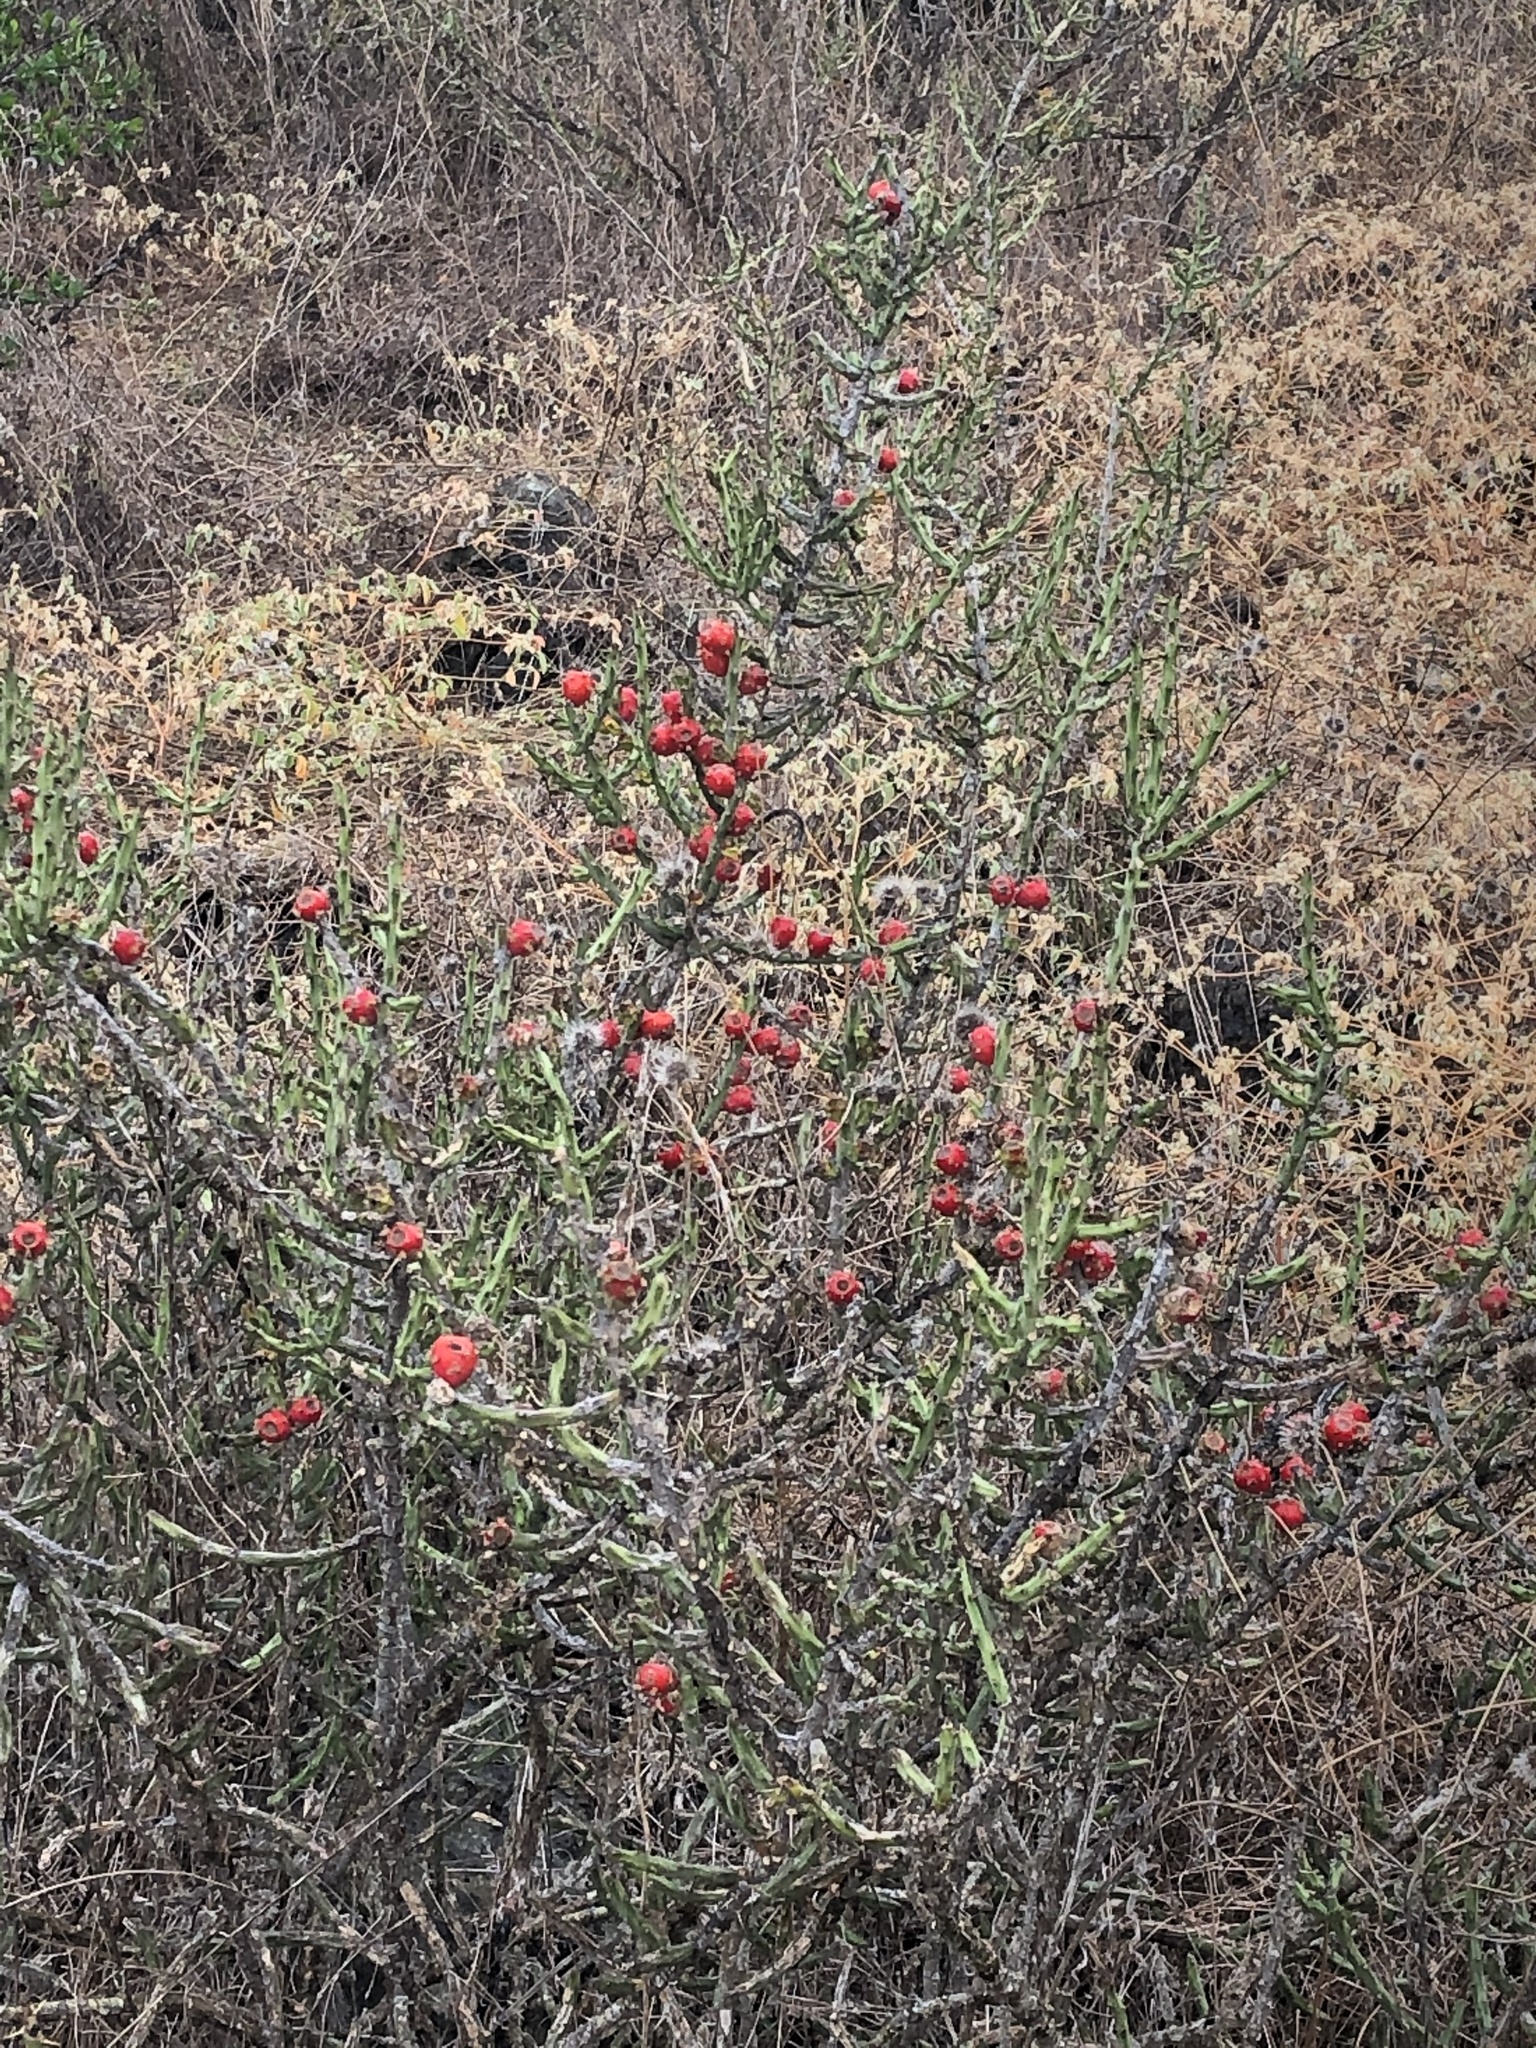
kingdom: Plantae
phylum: Tracheophyta
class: Magnoliopsida
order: Caryophyllales
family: Cactaceae
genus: Cylindropuntia
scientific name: Cylindropuntia leptocaulis
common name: Christmas cactus
